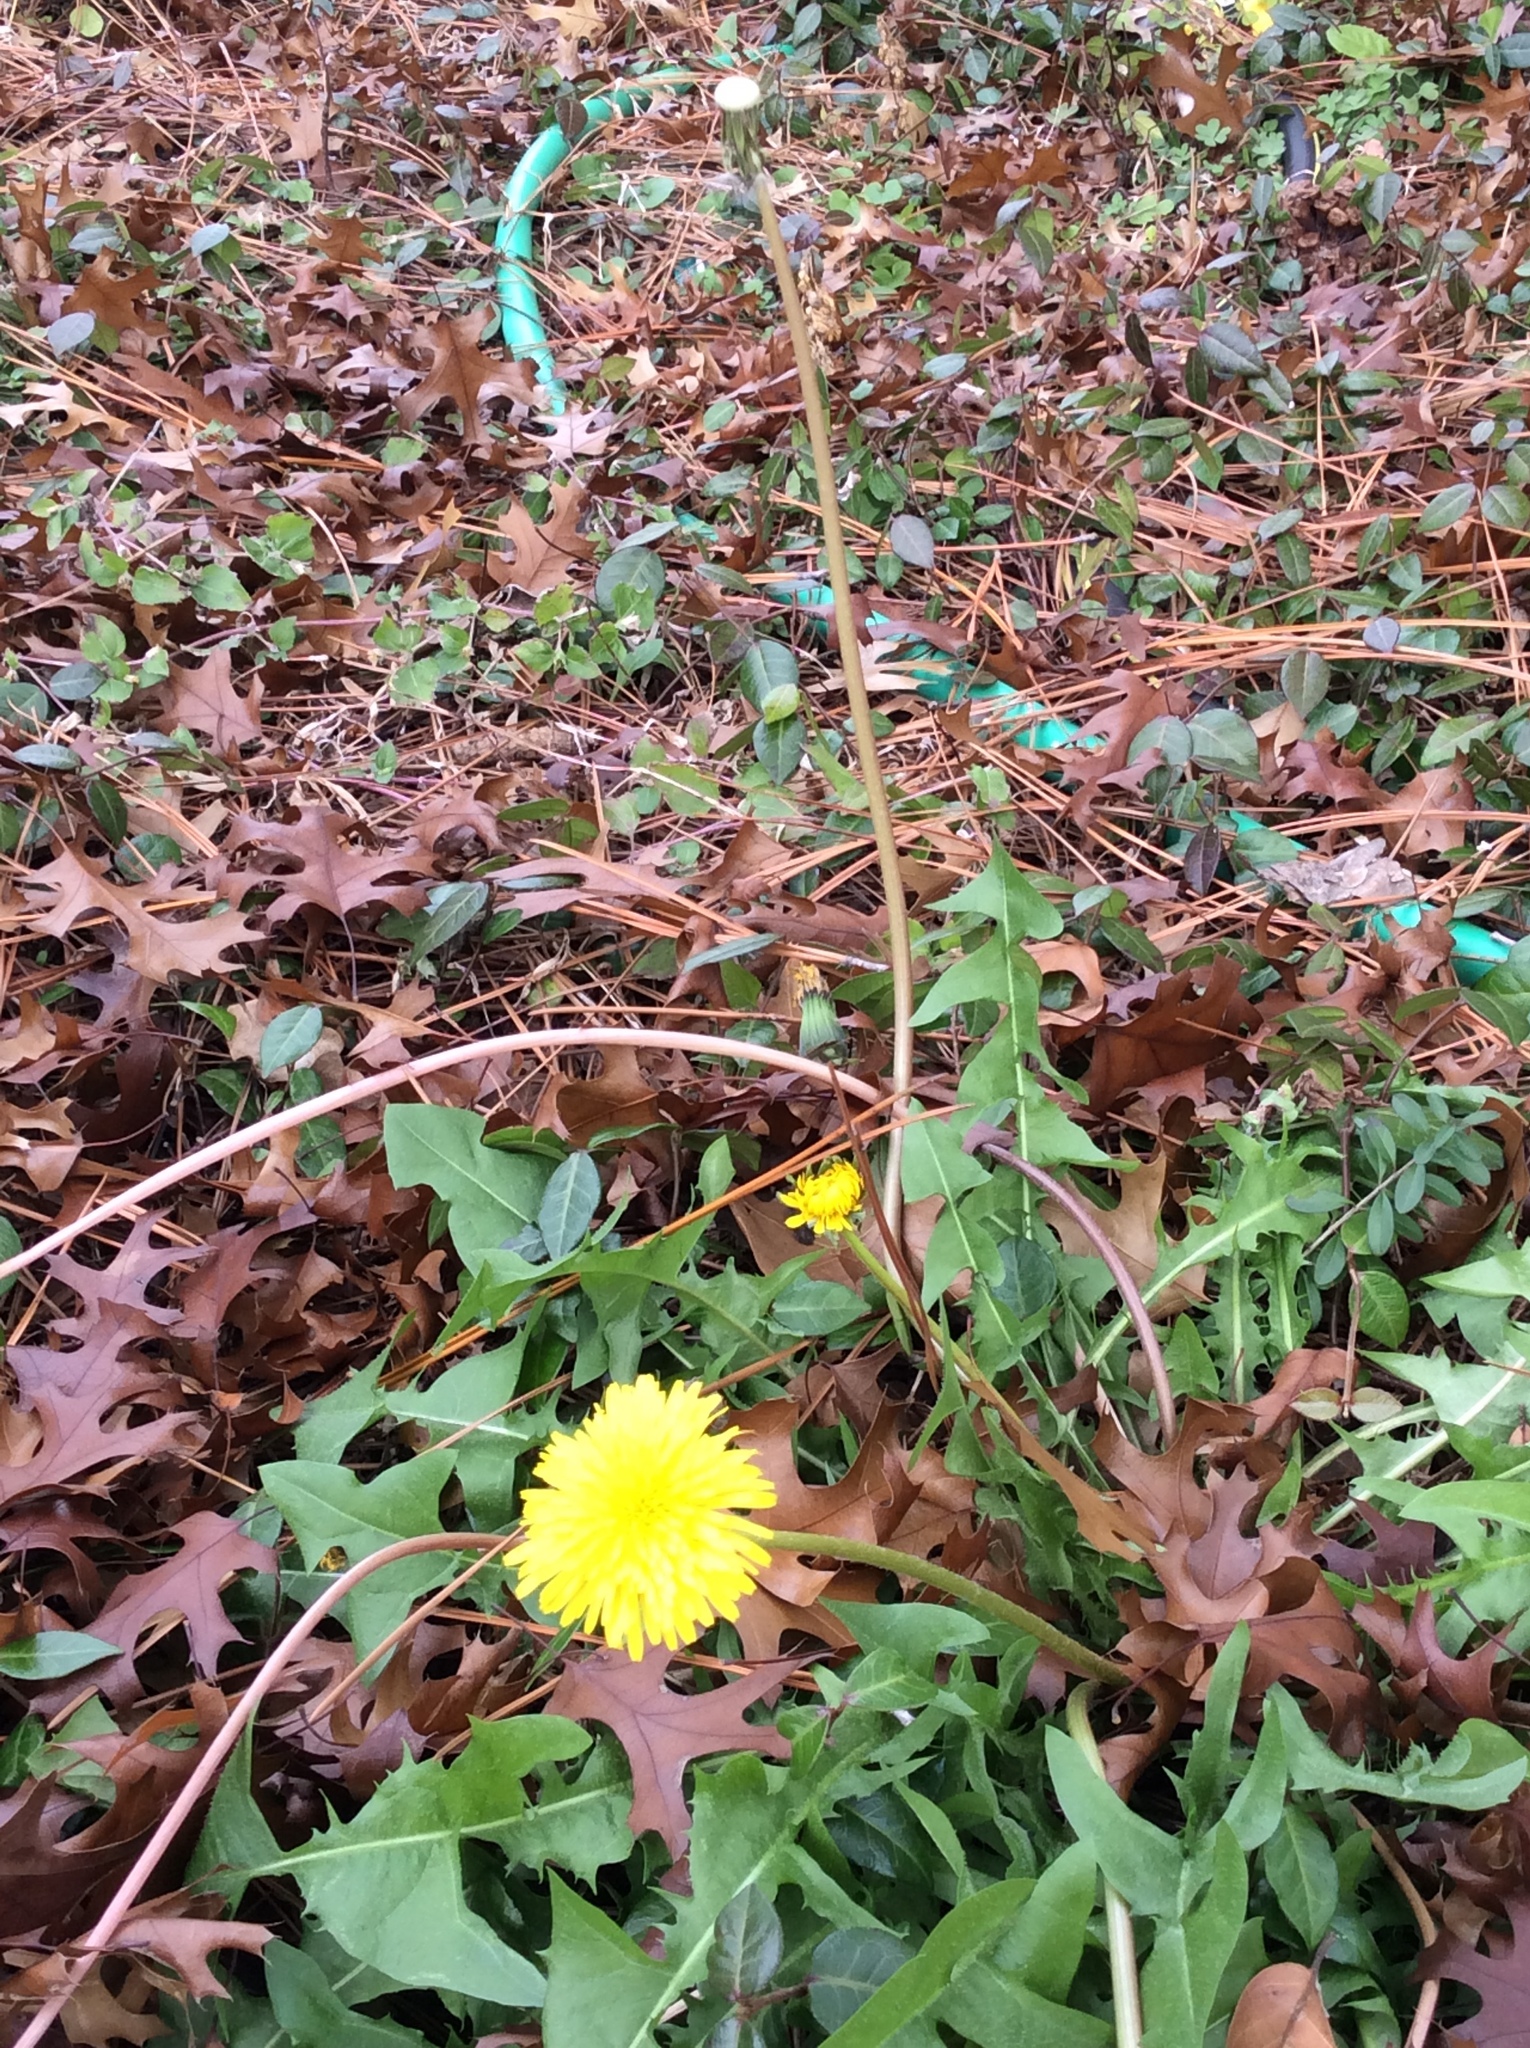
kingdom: Plantae
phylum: Tracheophyta
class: Magnoliopsida
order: Asterales
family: Asteraceae
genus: Taraxacum
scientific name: Taraxacum officinale
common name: Common dandelion
